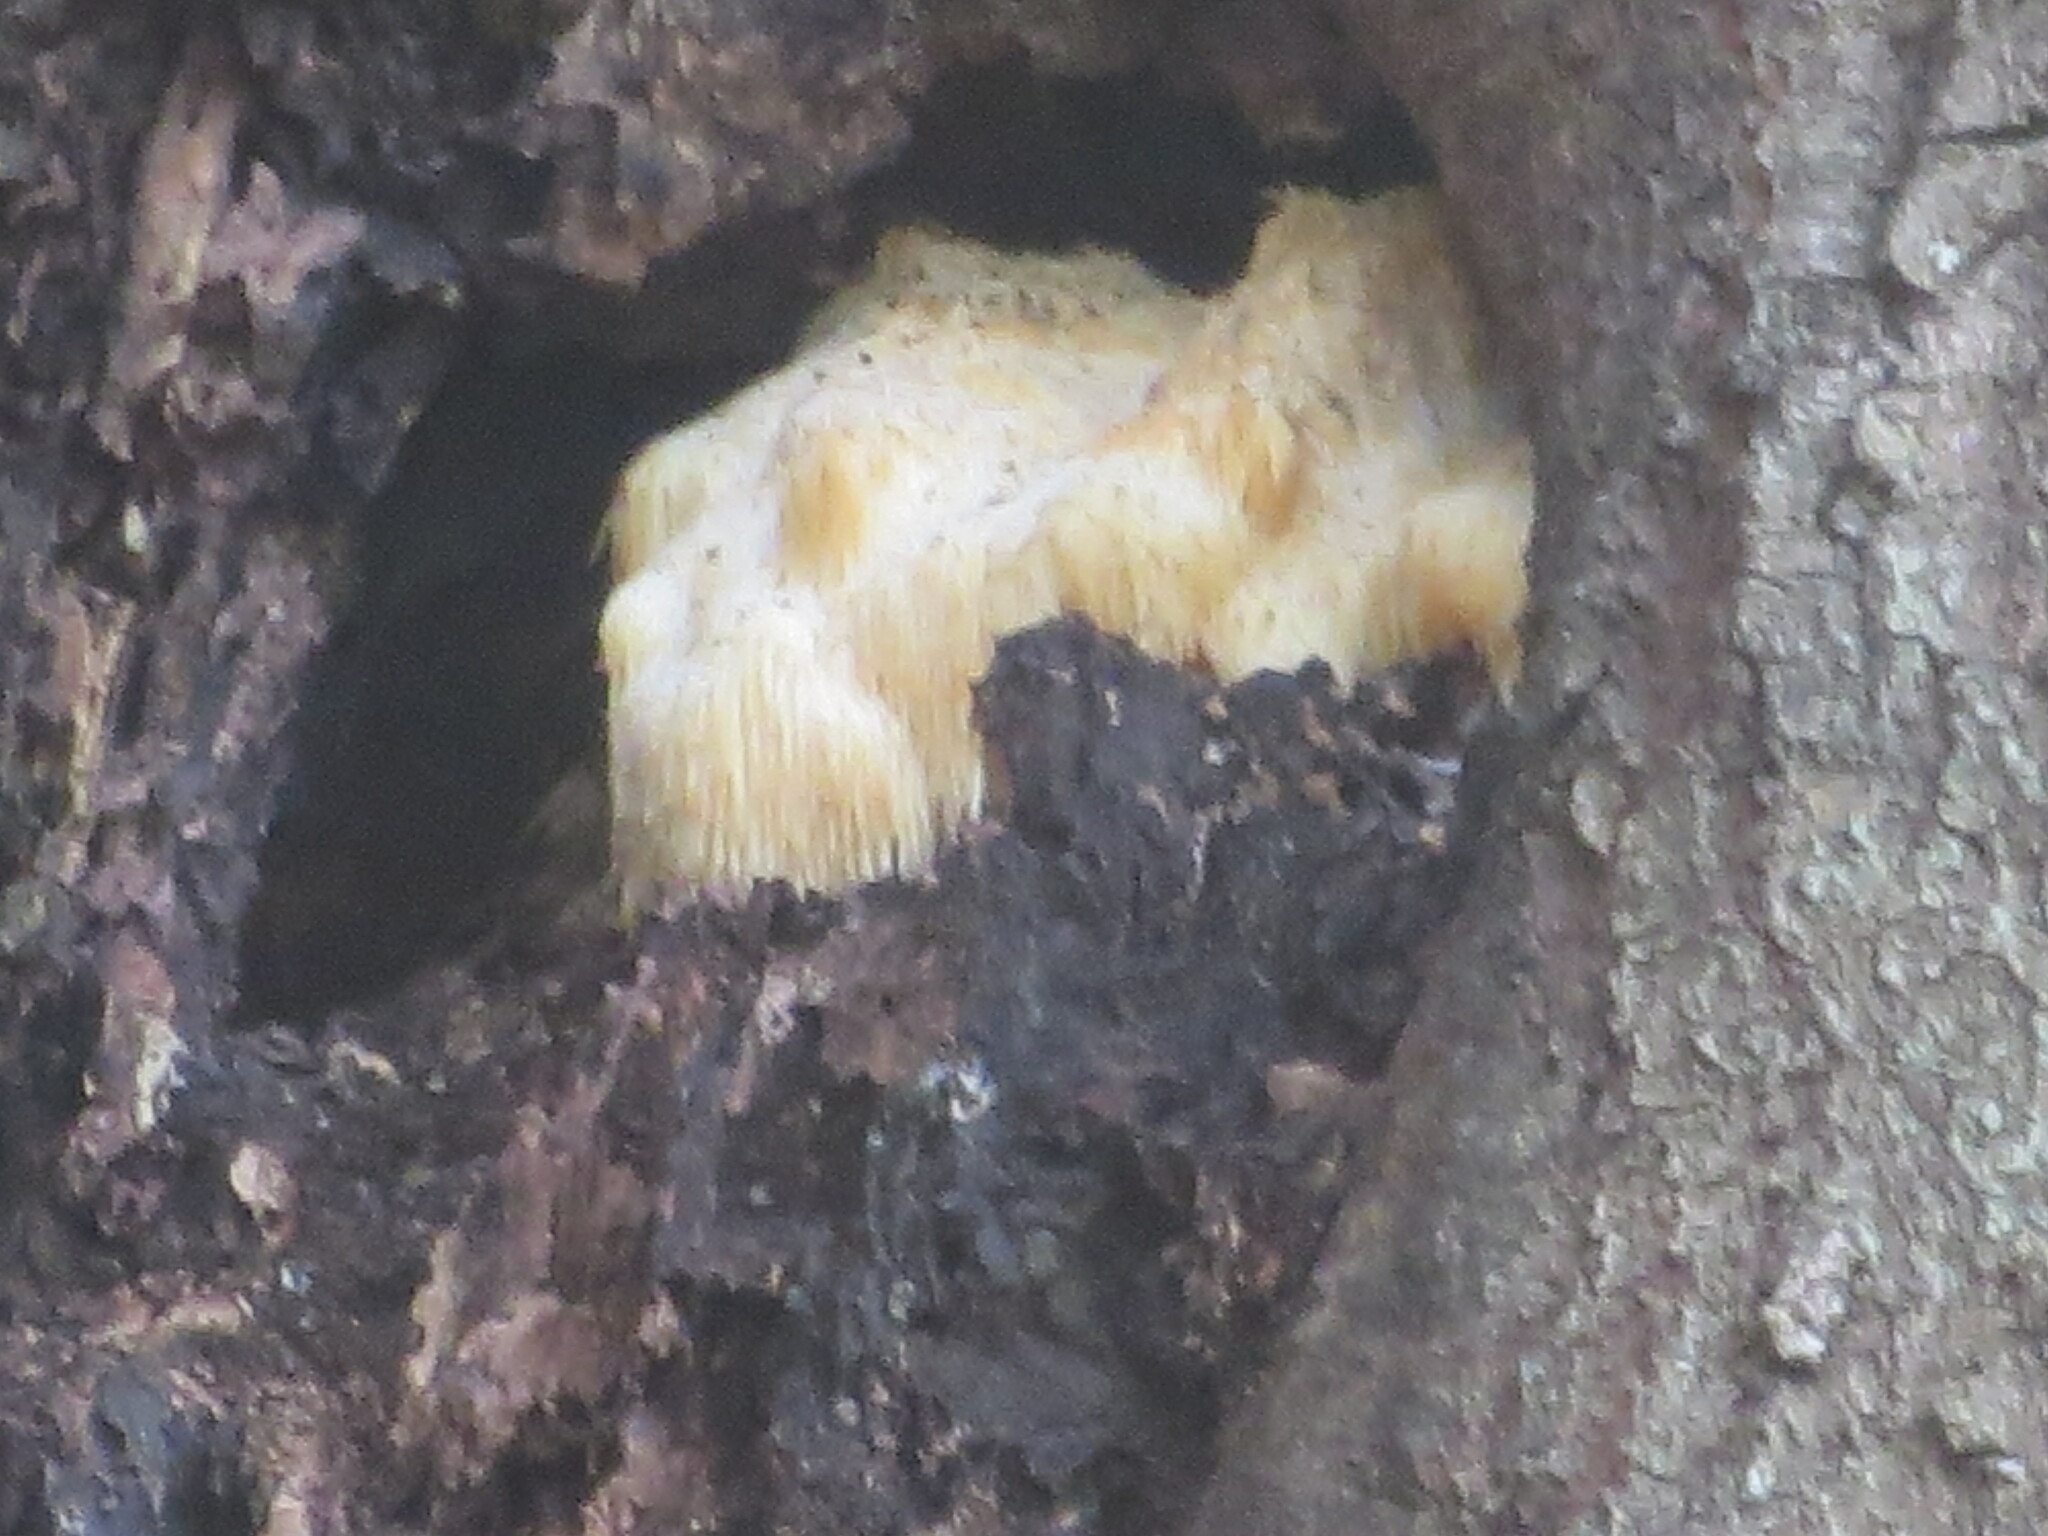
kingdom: Fungi
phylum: Basidiomycota
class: Agaricomycetes
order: Russulales
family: Hericiaceae
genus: Hericium
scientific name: Hericium erinaceus
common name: Bearded tooth
